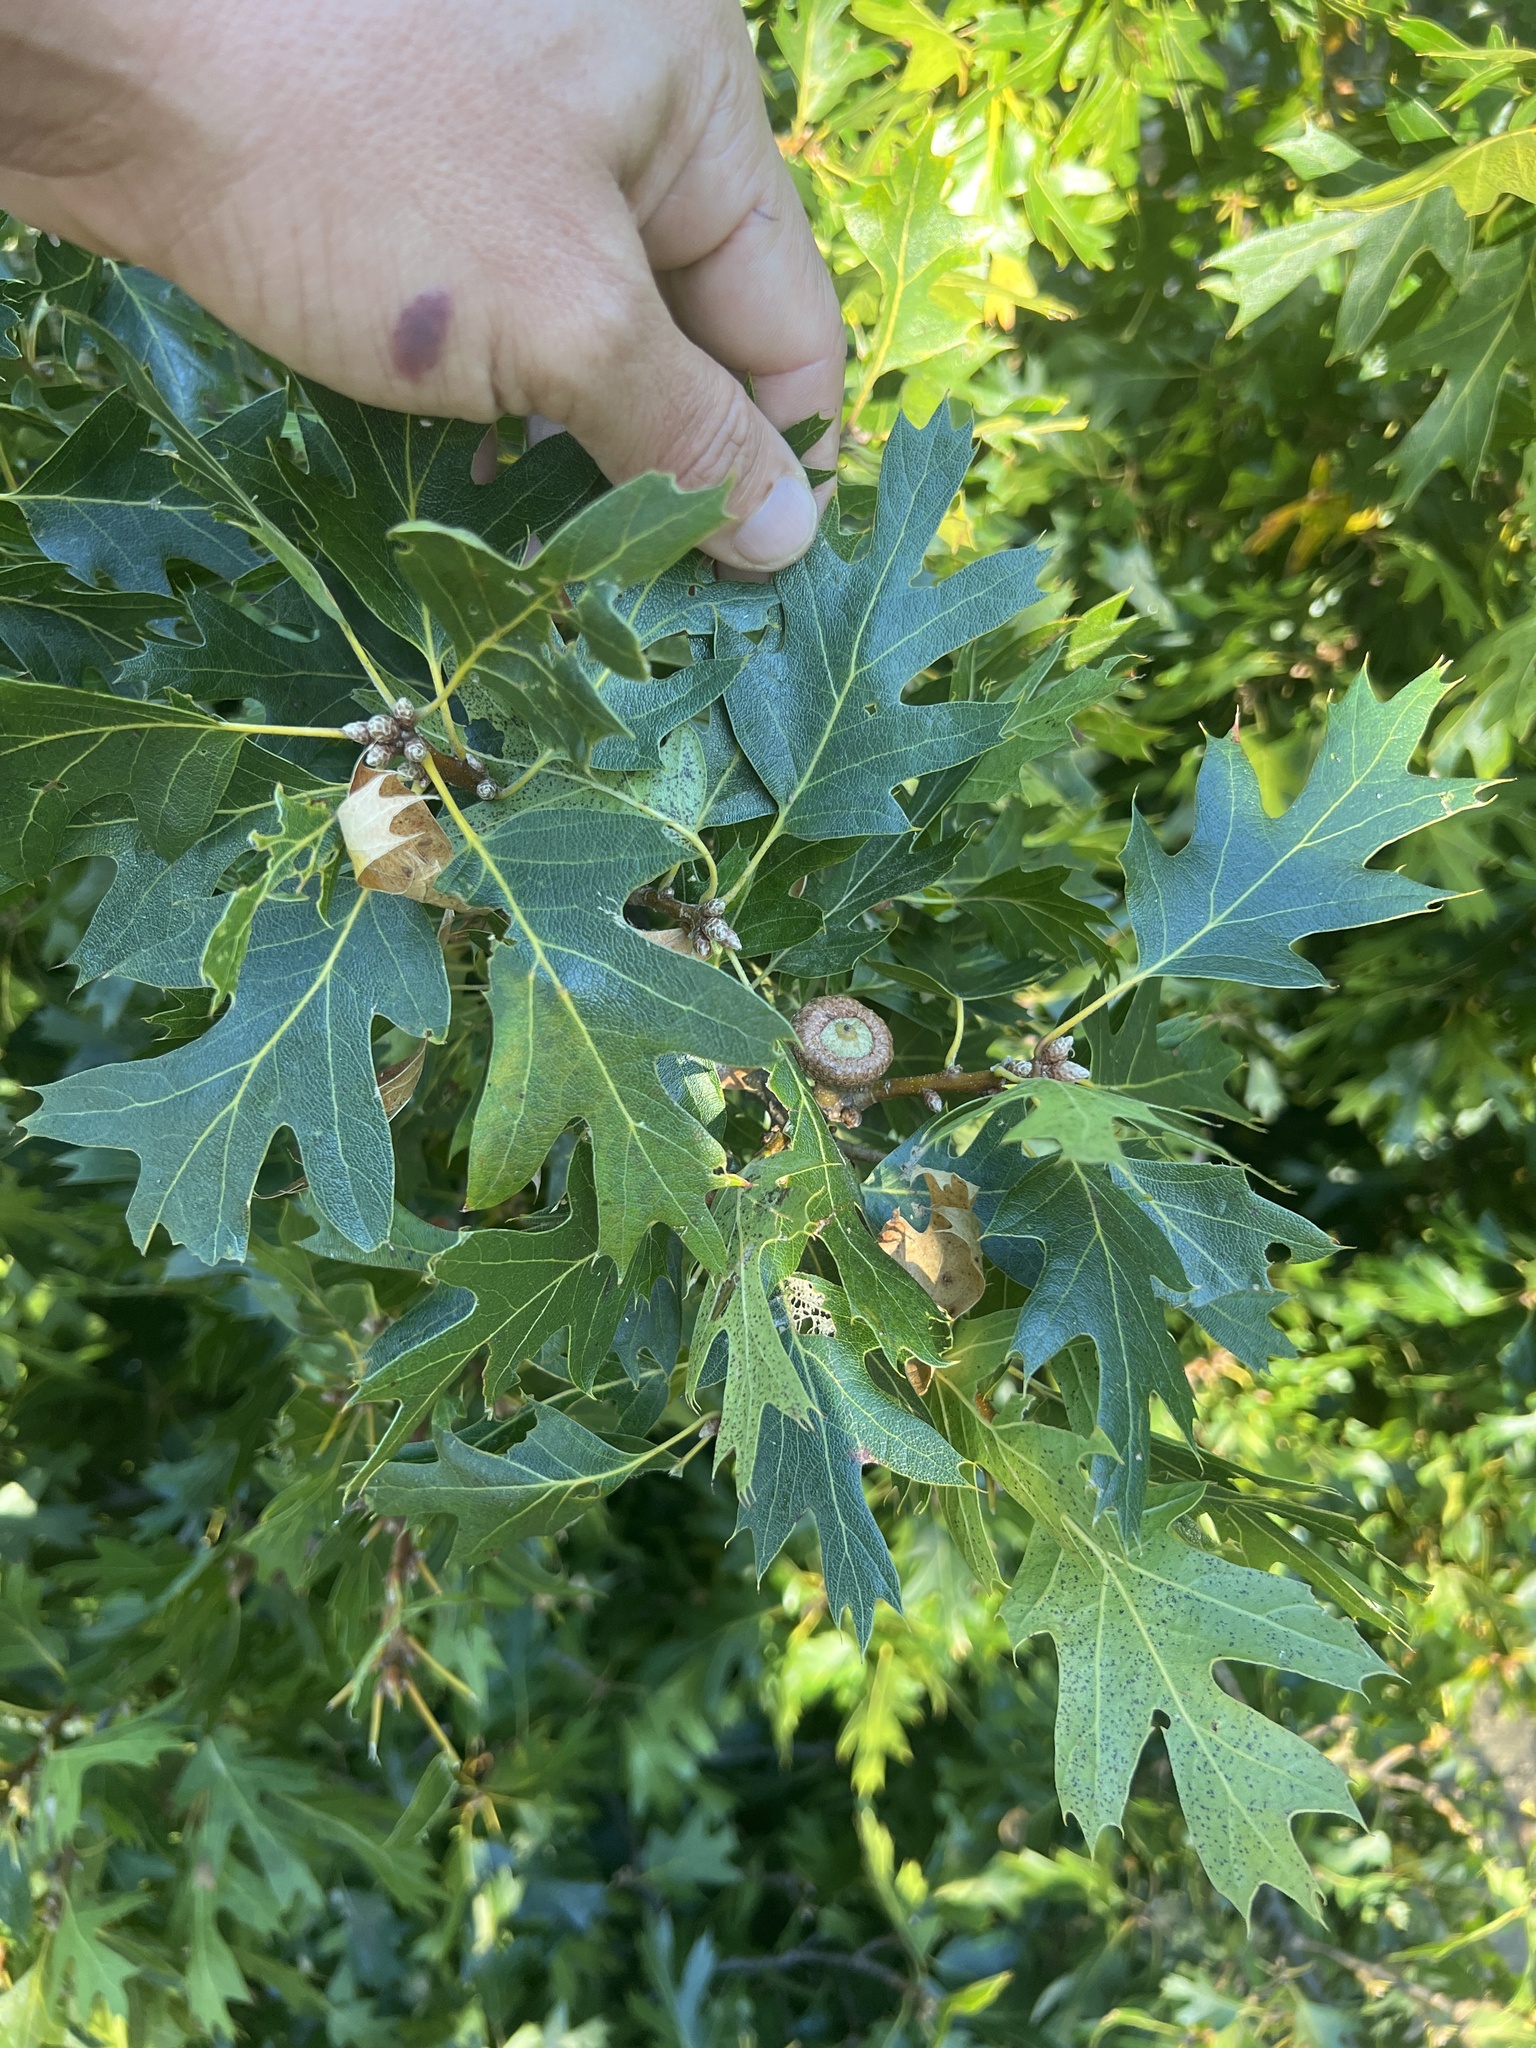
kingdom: Plantae
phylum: Tracheophyta
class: Magnoliopsida
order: Fagales
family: Fagaceae
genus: Quercus
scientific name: Quercus kelloggii
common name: California black oak
